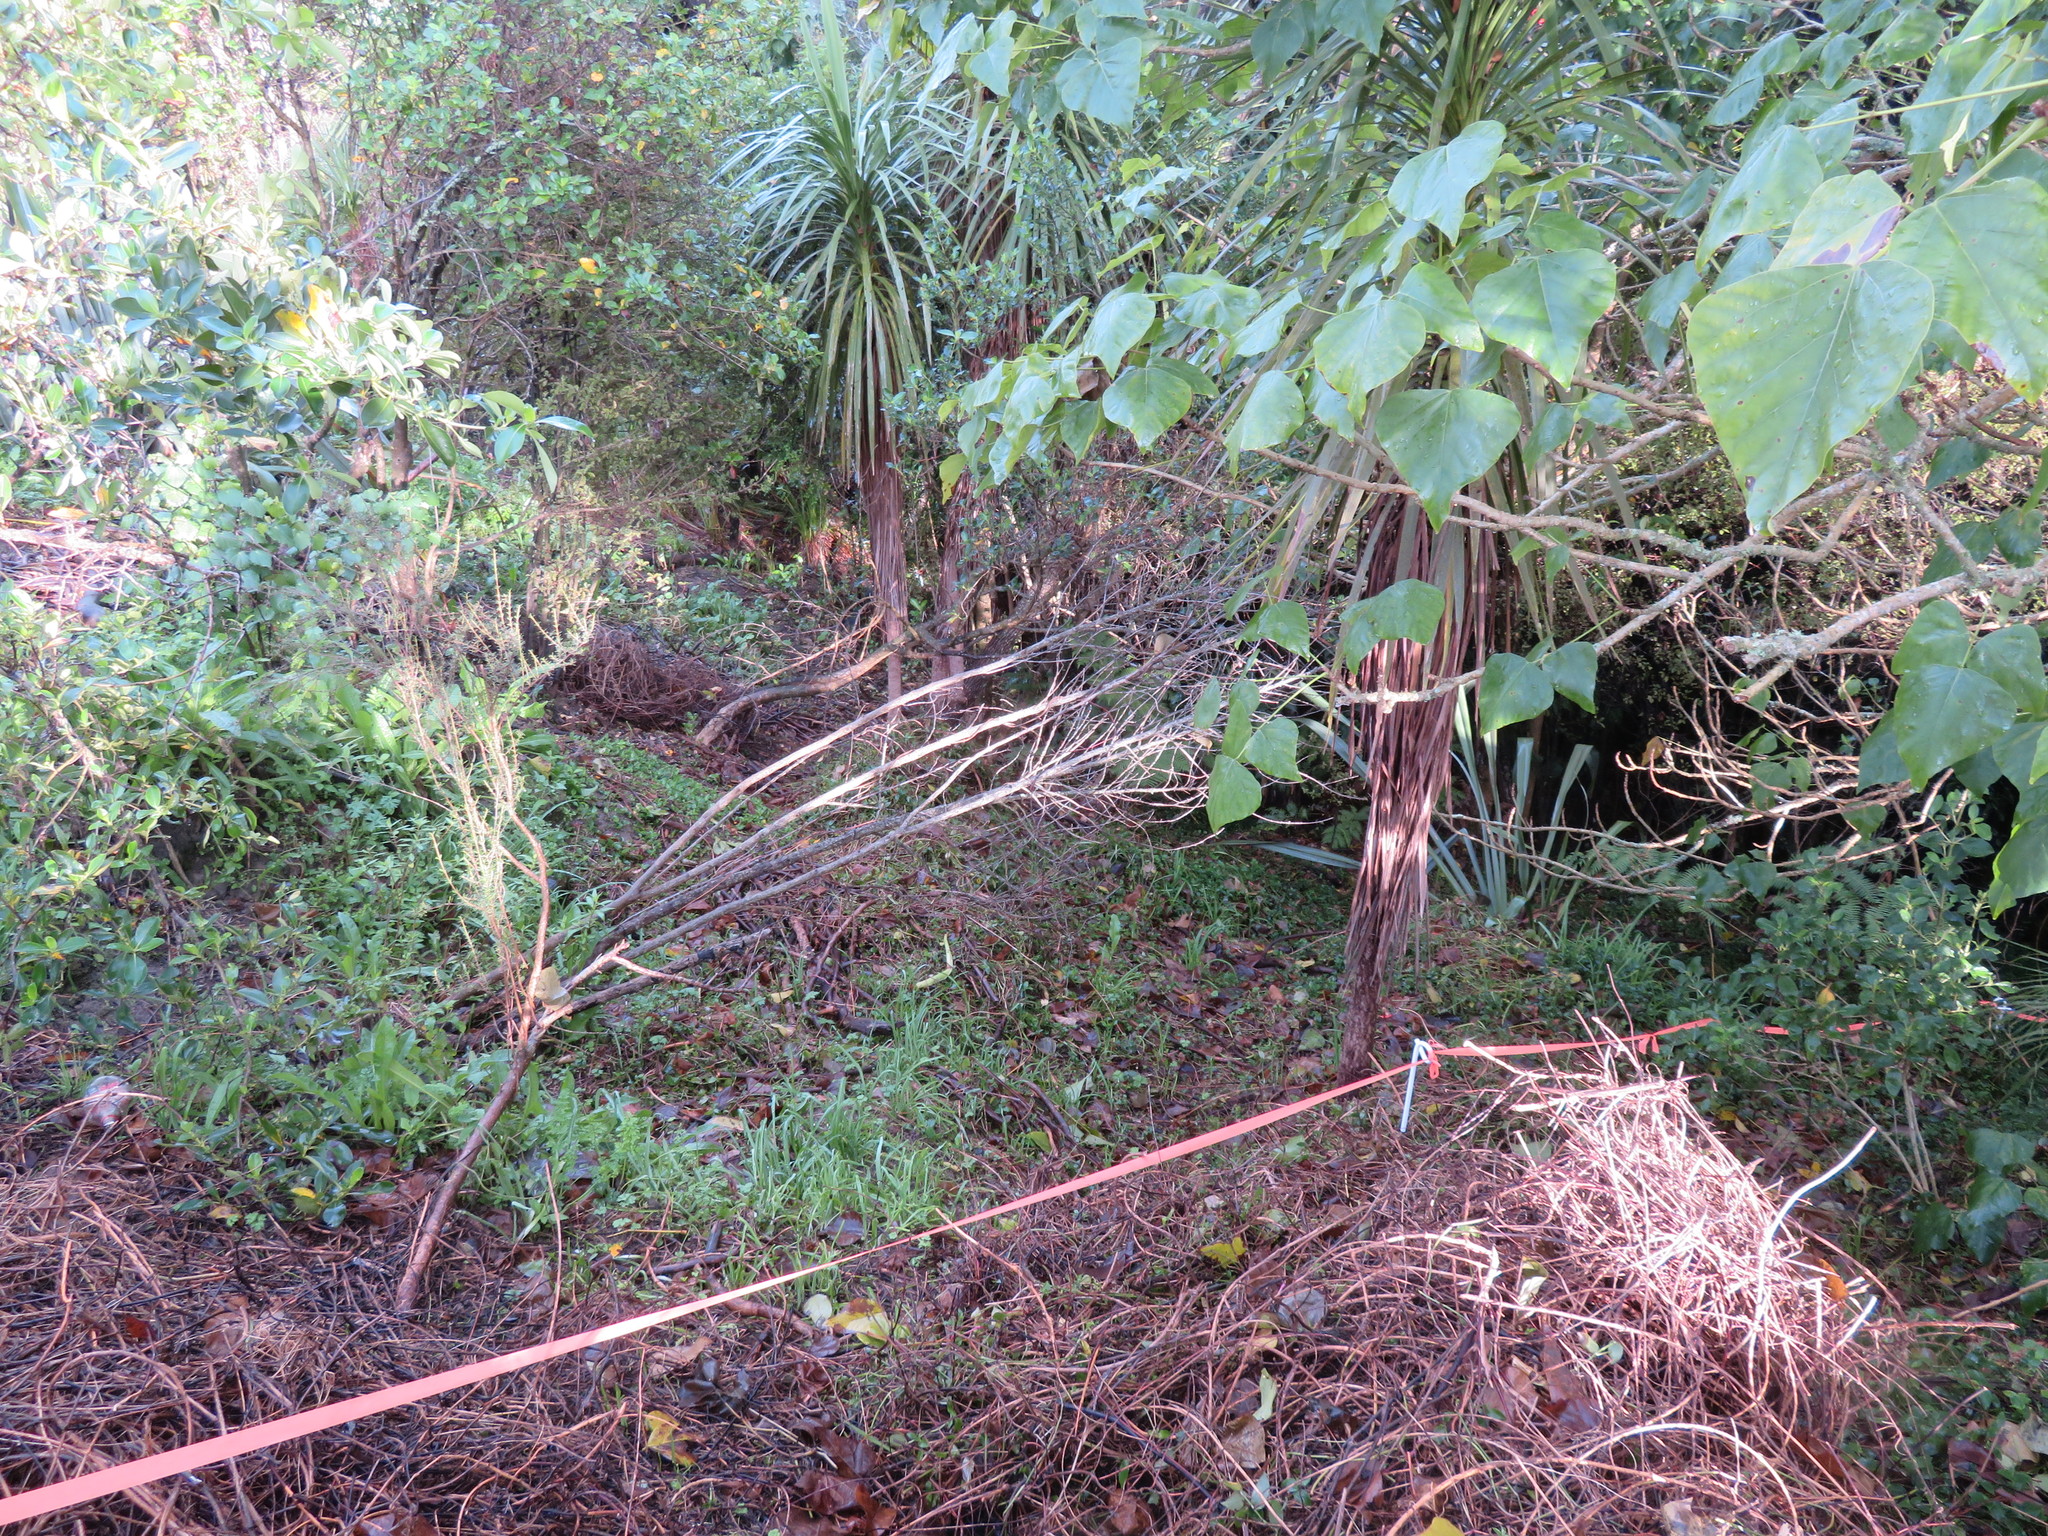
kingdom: Plantae
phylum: Tracheophyta
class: Liliopsida
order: Asparagales
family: Asparagaceae
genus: Cordyline
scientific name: Cordyline australis
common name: Cabbage-palm
